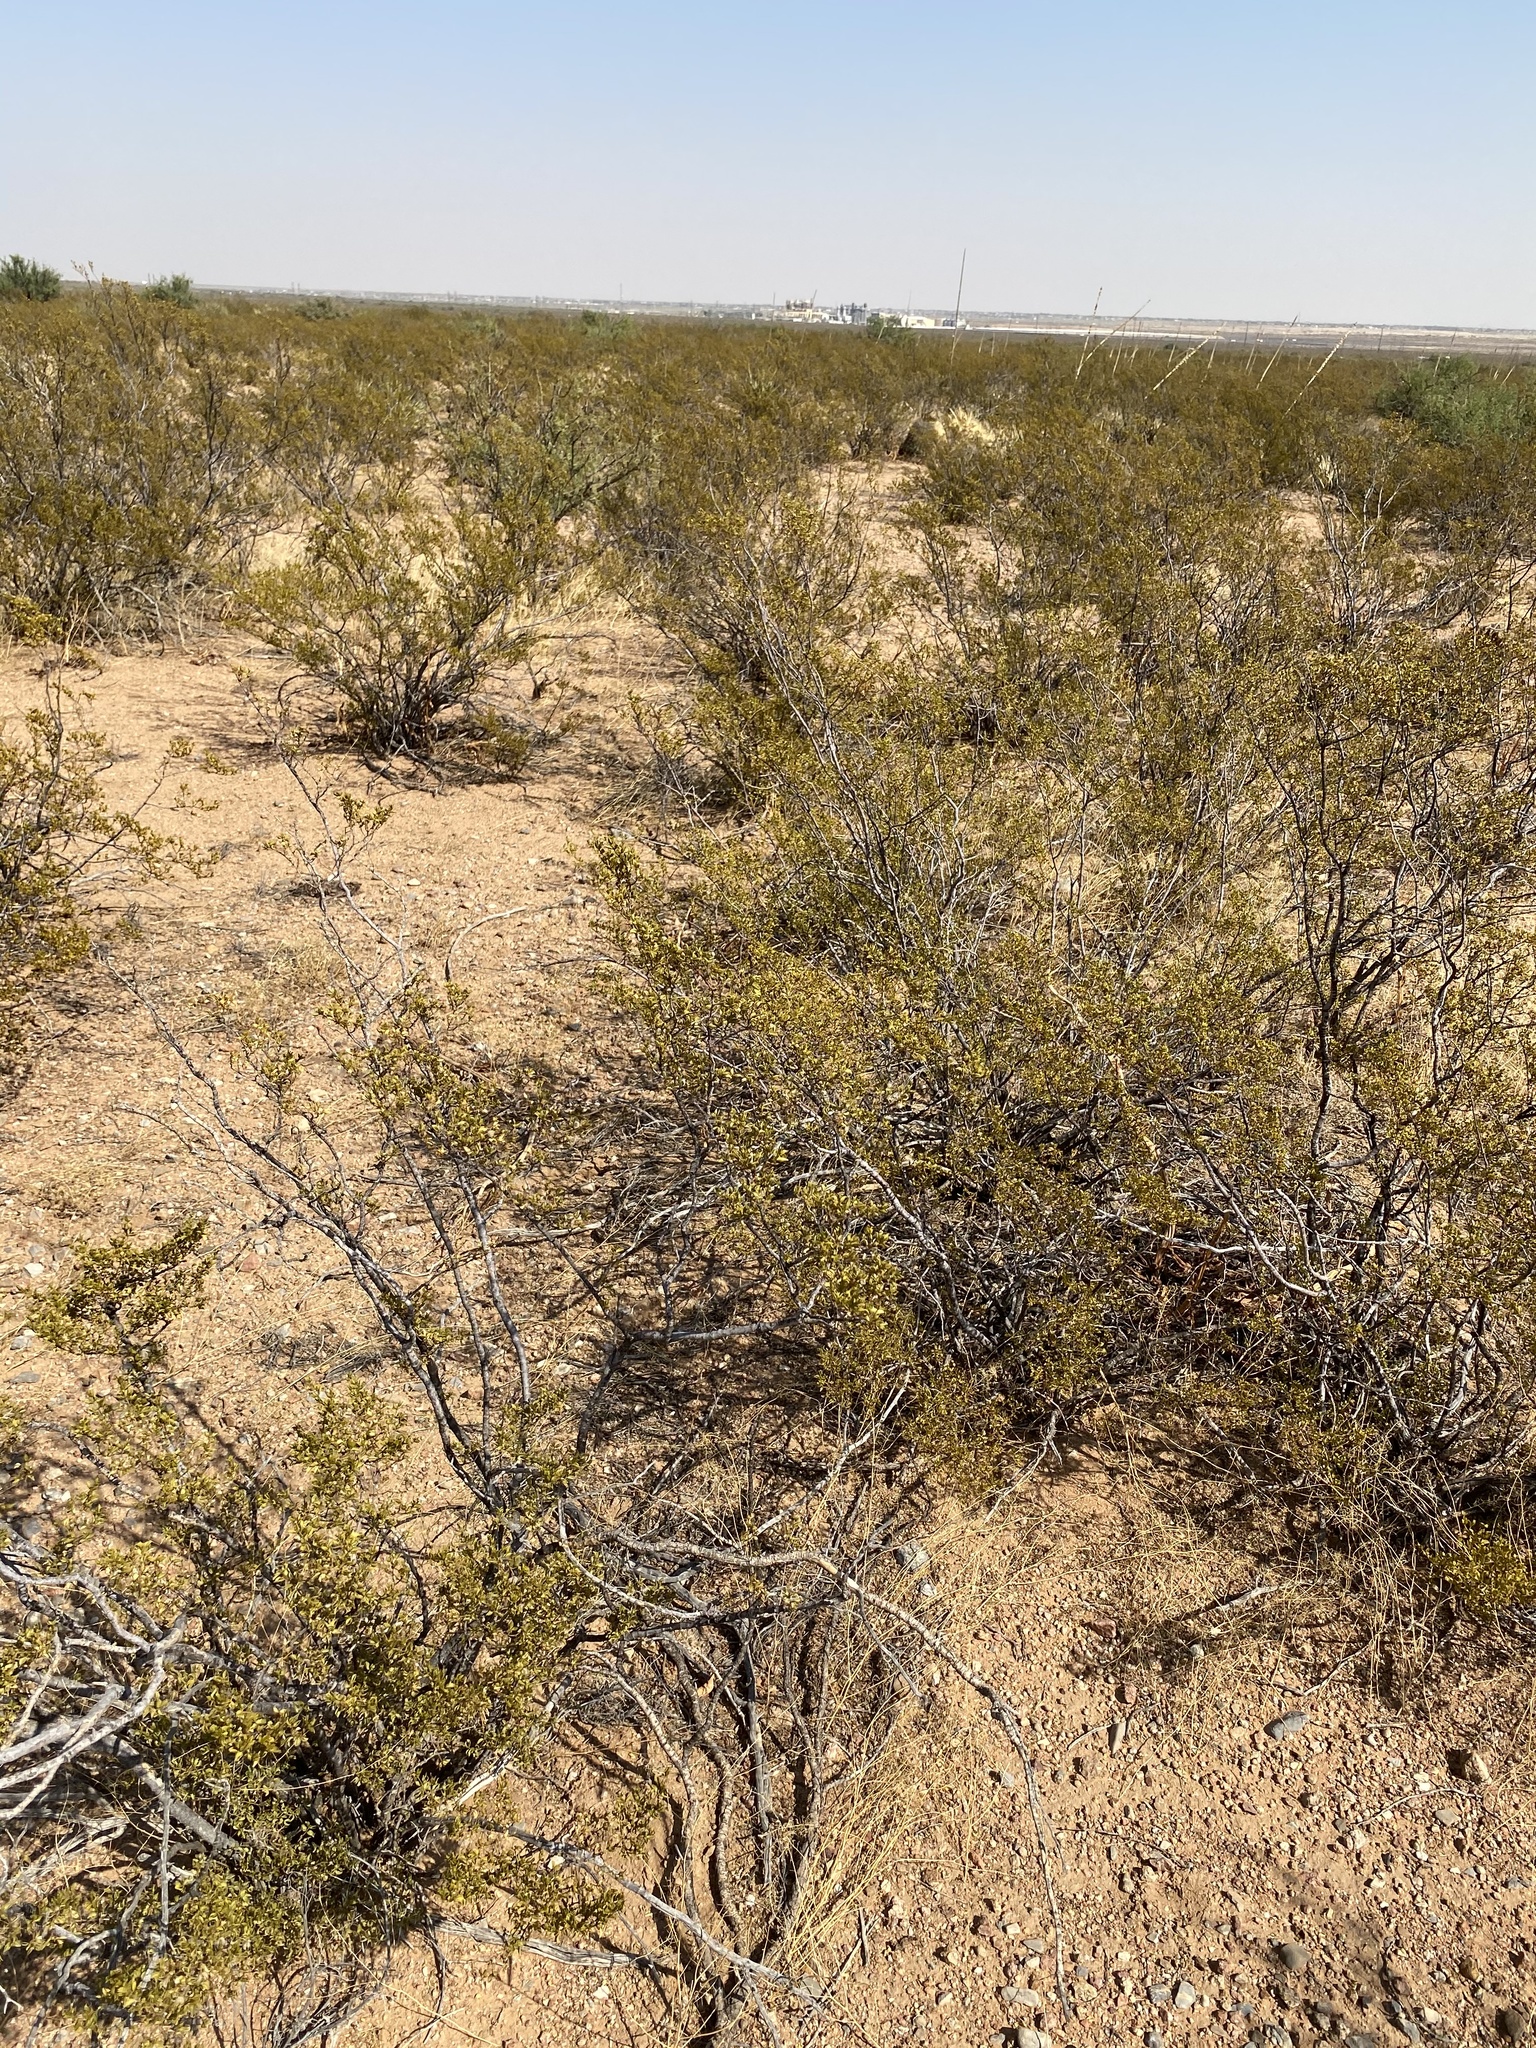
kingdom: Plantae
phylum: Tracheophyta
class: Magnoliopsida
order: Zygophyllales
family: Zygophyllaceae
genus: Larrea
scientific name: Larrea tridentata
